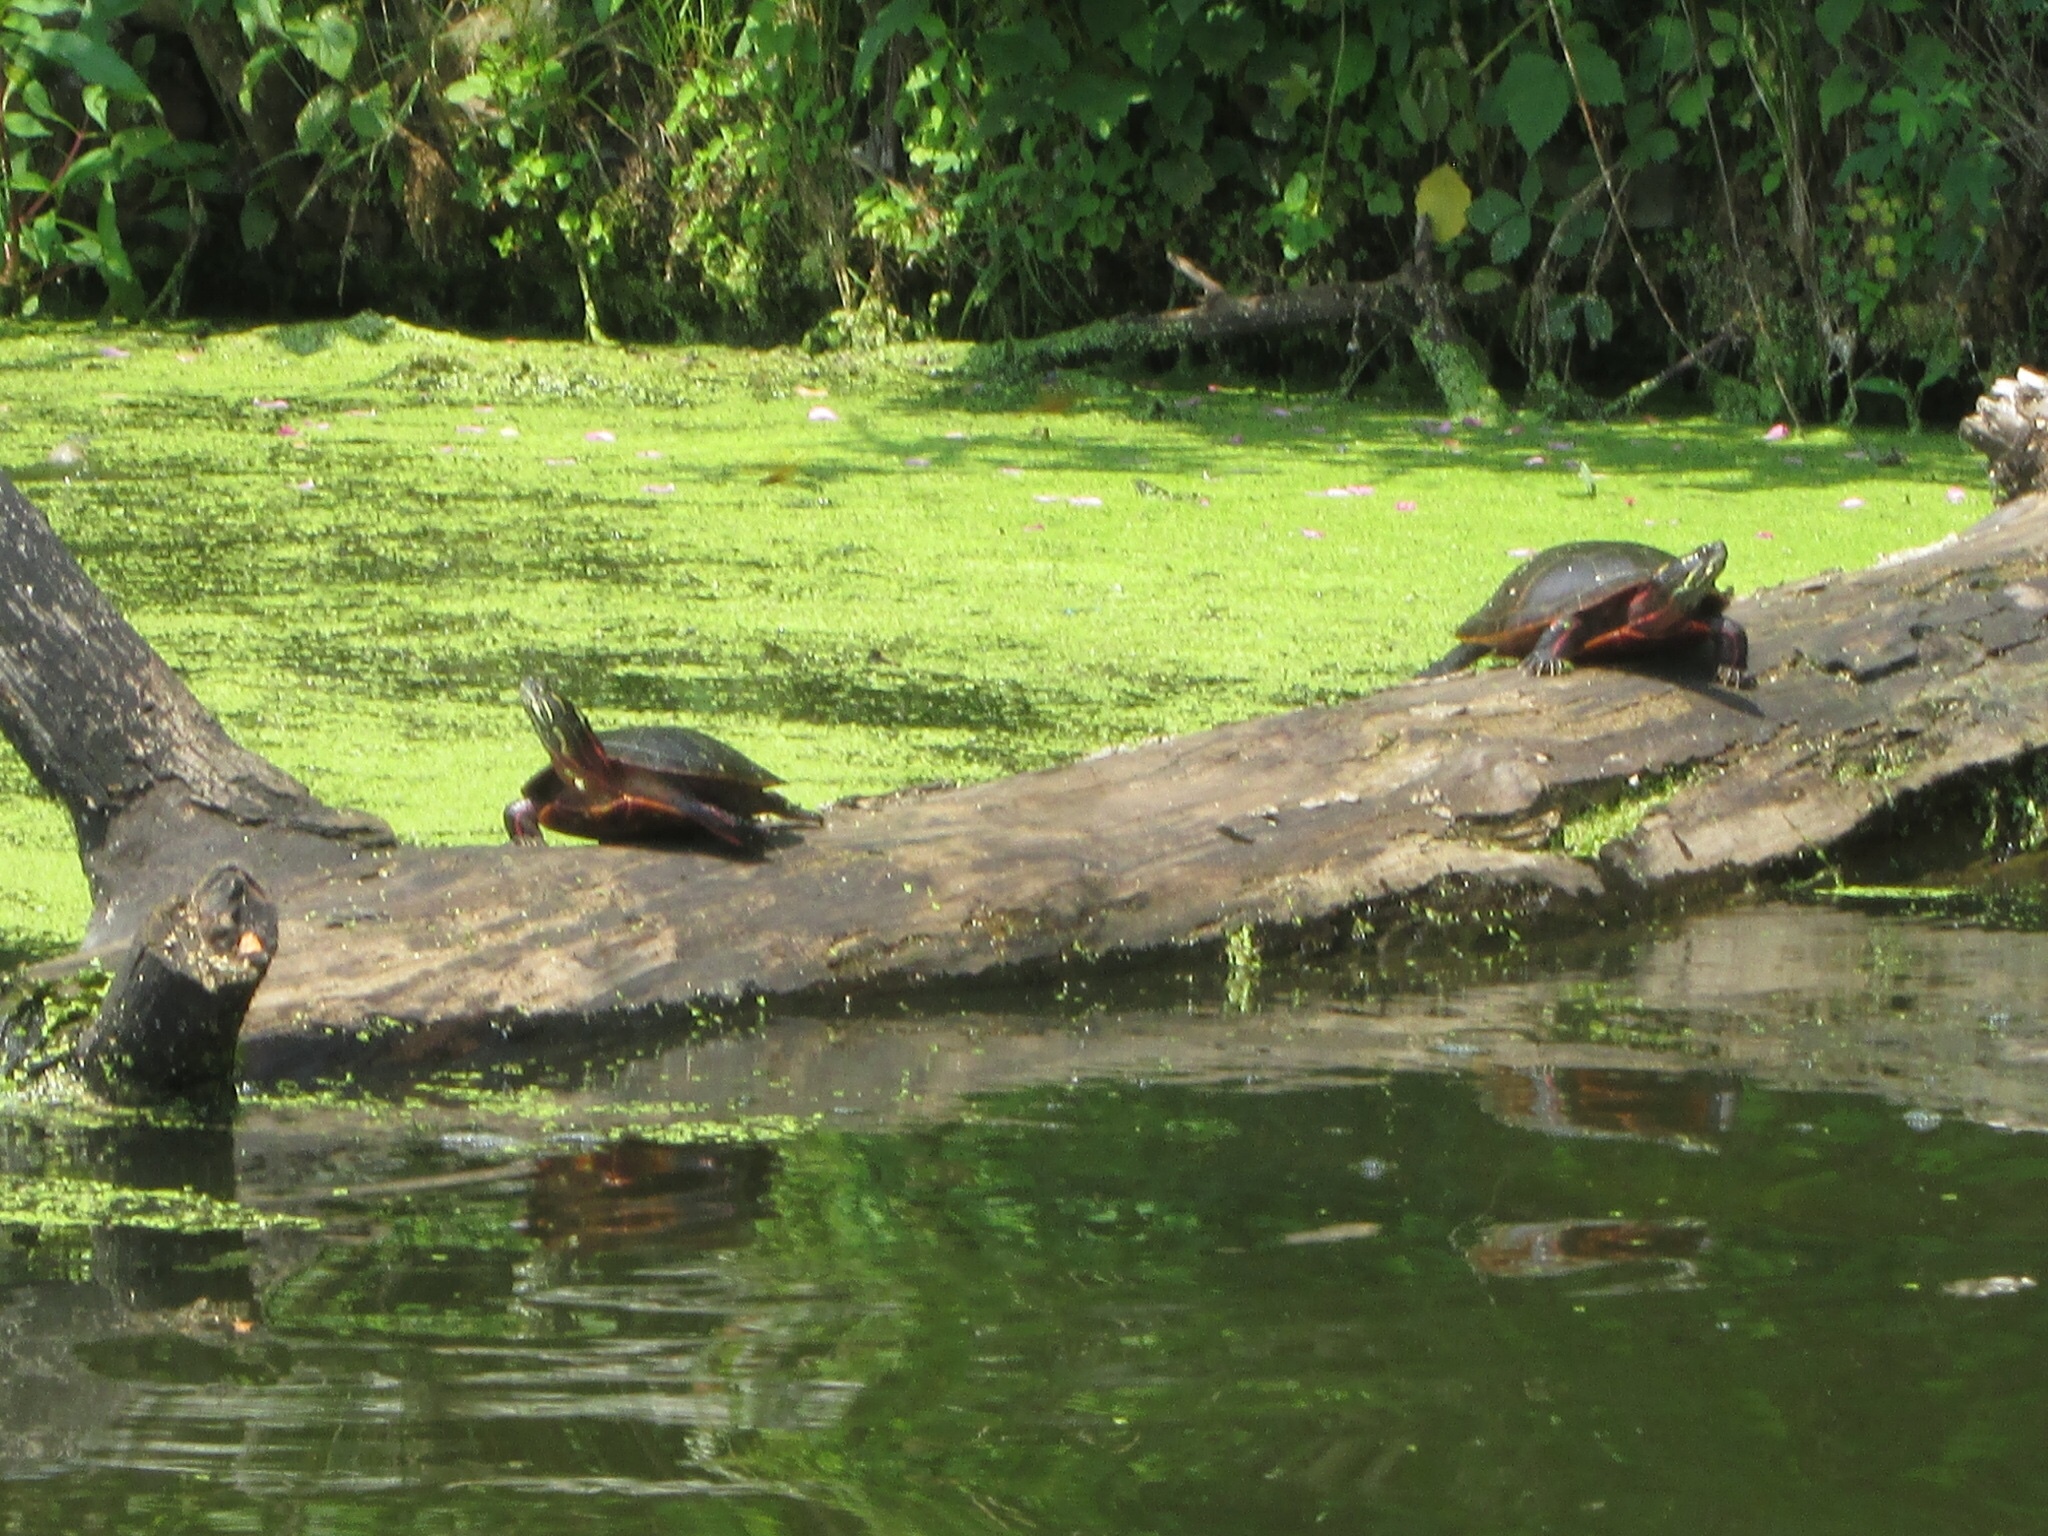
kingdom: Animalia
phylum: Chordata
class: Testudines
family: Emydidae
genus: Chrysemys
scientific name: Chrysemys picta
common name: Painted turtle
